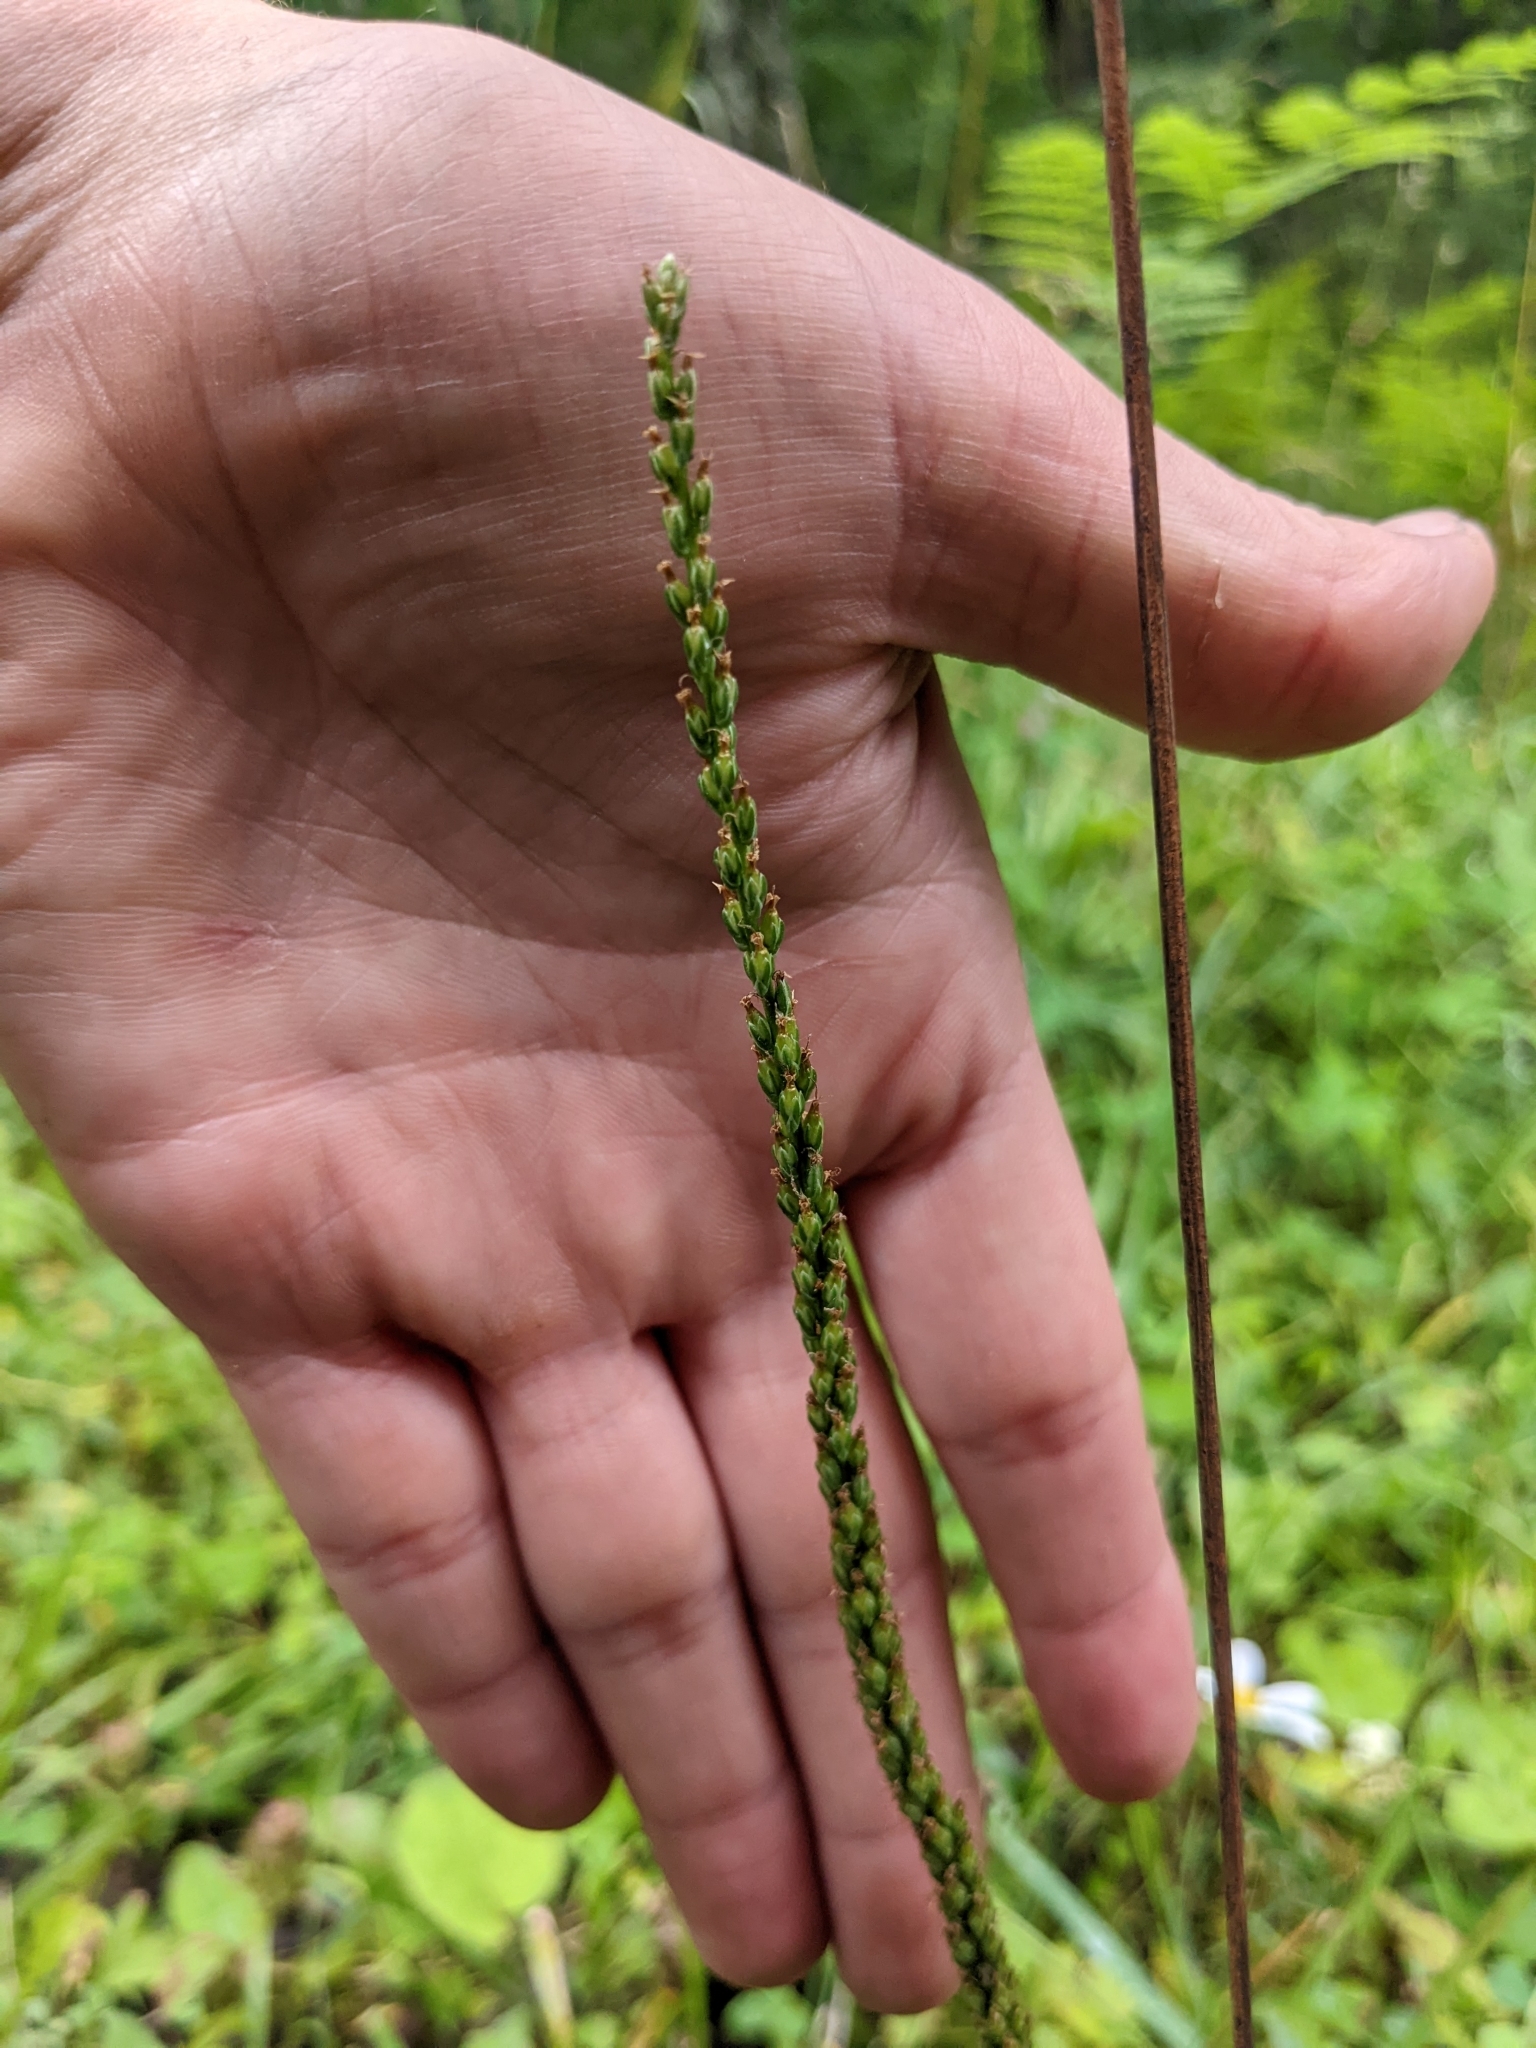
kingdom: Plantae
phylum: Tracheophyta
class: Magnoliopsida
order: Lamiales
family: Plantaginaceae
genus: Plantago
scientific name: Plantago rugelii
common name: American plantain
